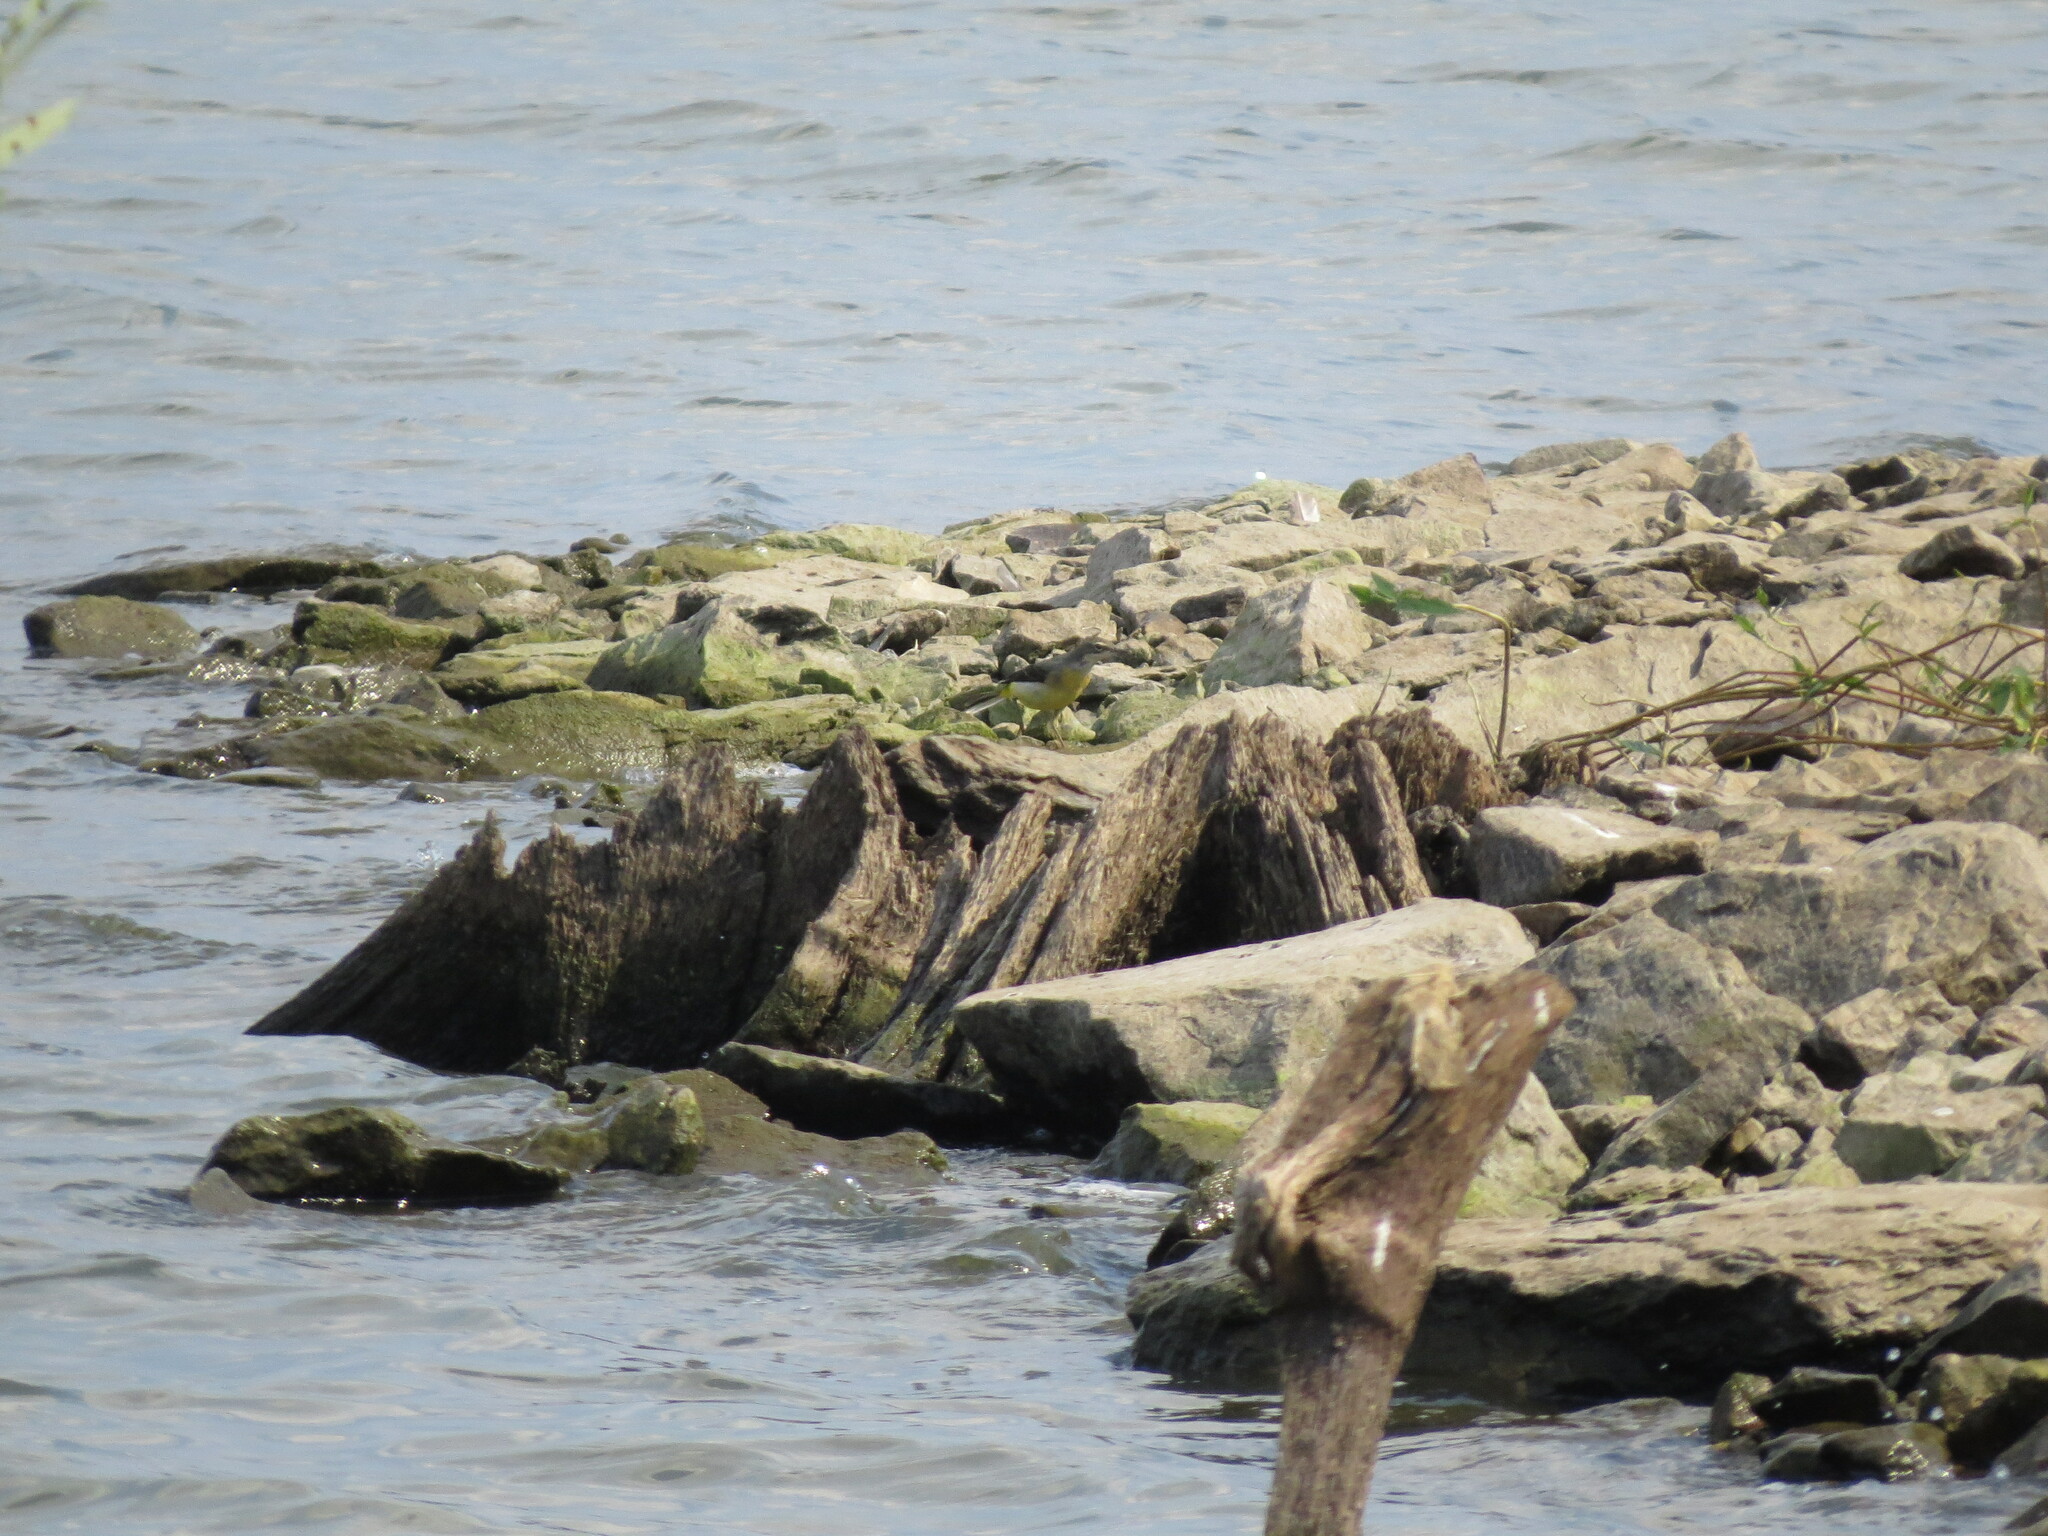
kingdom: Animalia
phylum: Chordata
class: Aves
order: Passeriformes
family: Motacillidae
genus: Motacilla
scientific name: Motacilla cinerea
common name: Grey wagtail
